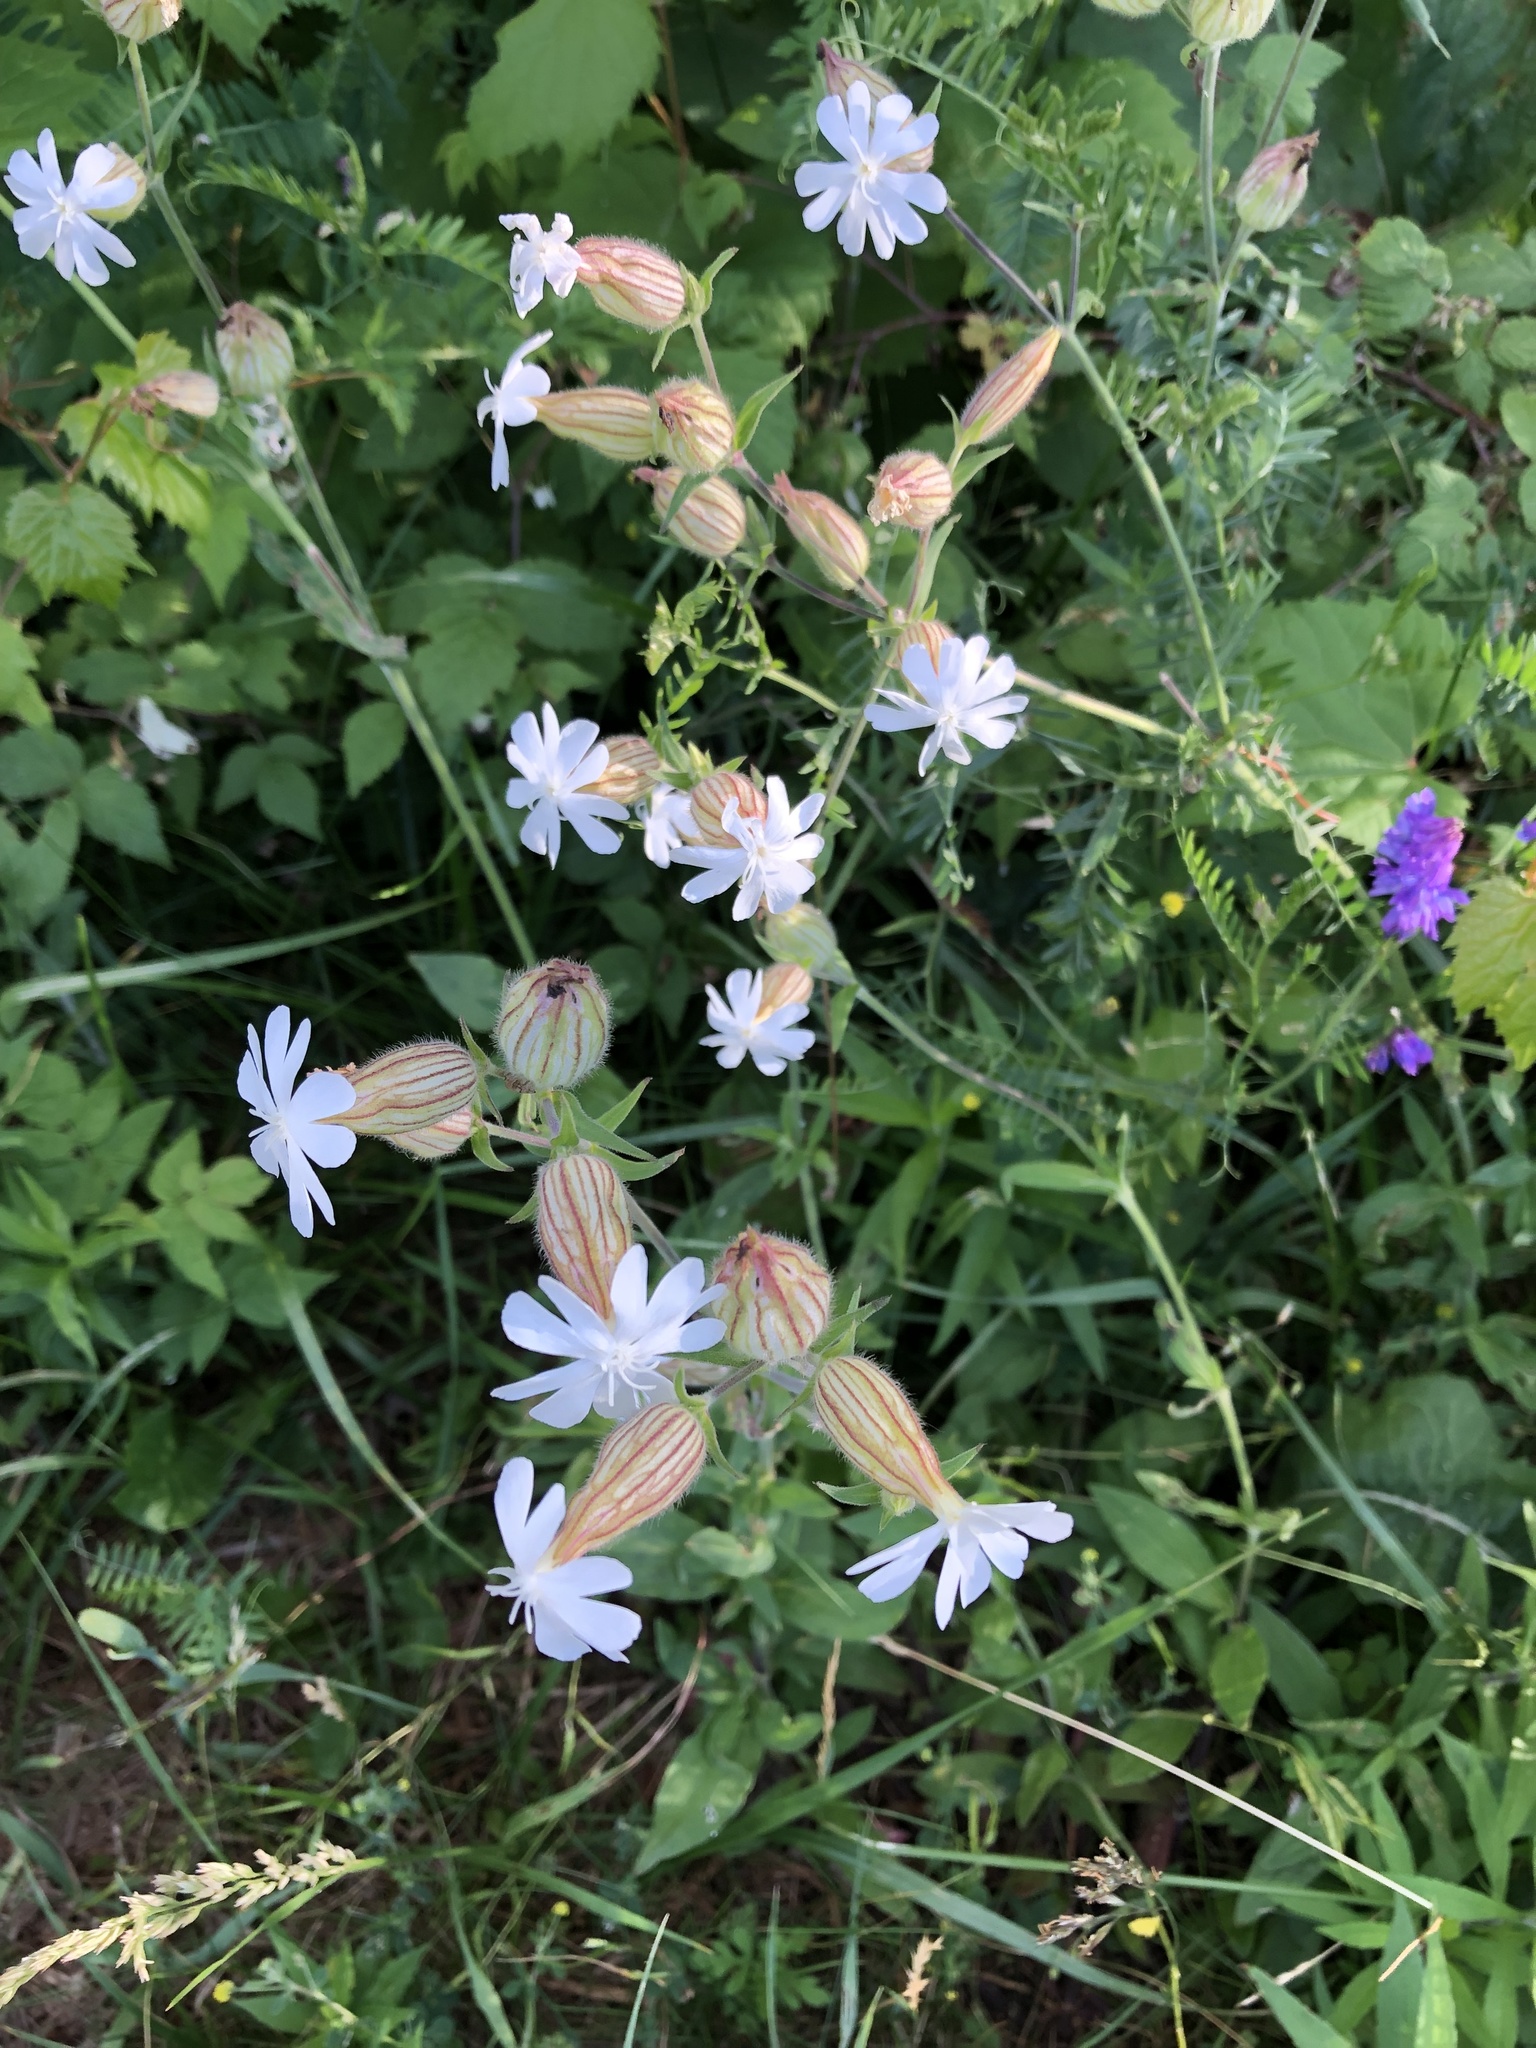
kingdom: Plantae
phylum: Tracheophyta
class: Magnoliopsida
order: Caryophyllales
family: Caryophyllaceae
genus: Silene
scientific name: Silene latifolia
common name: White campion
